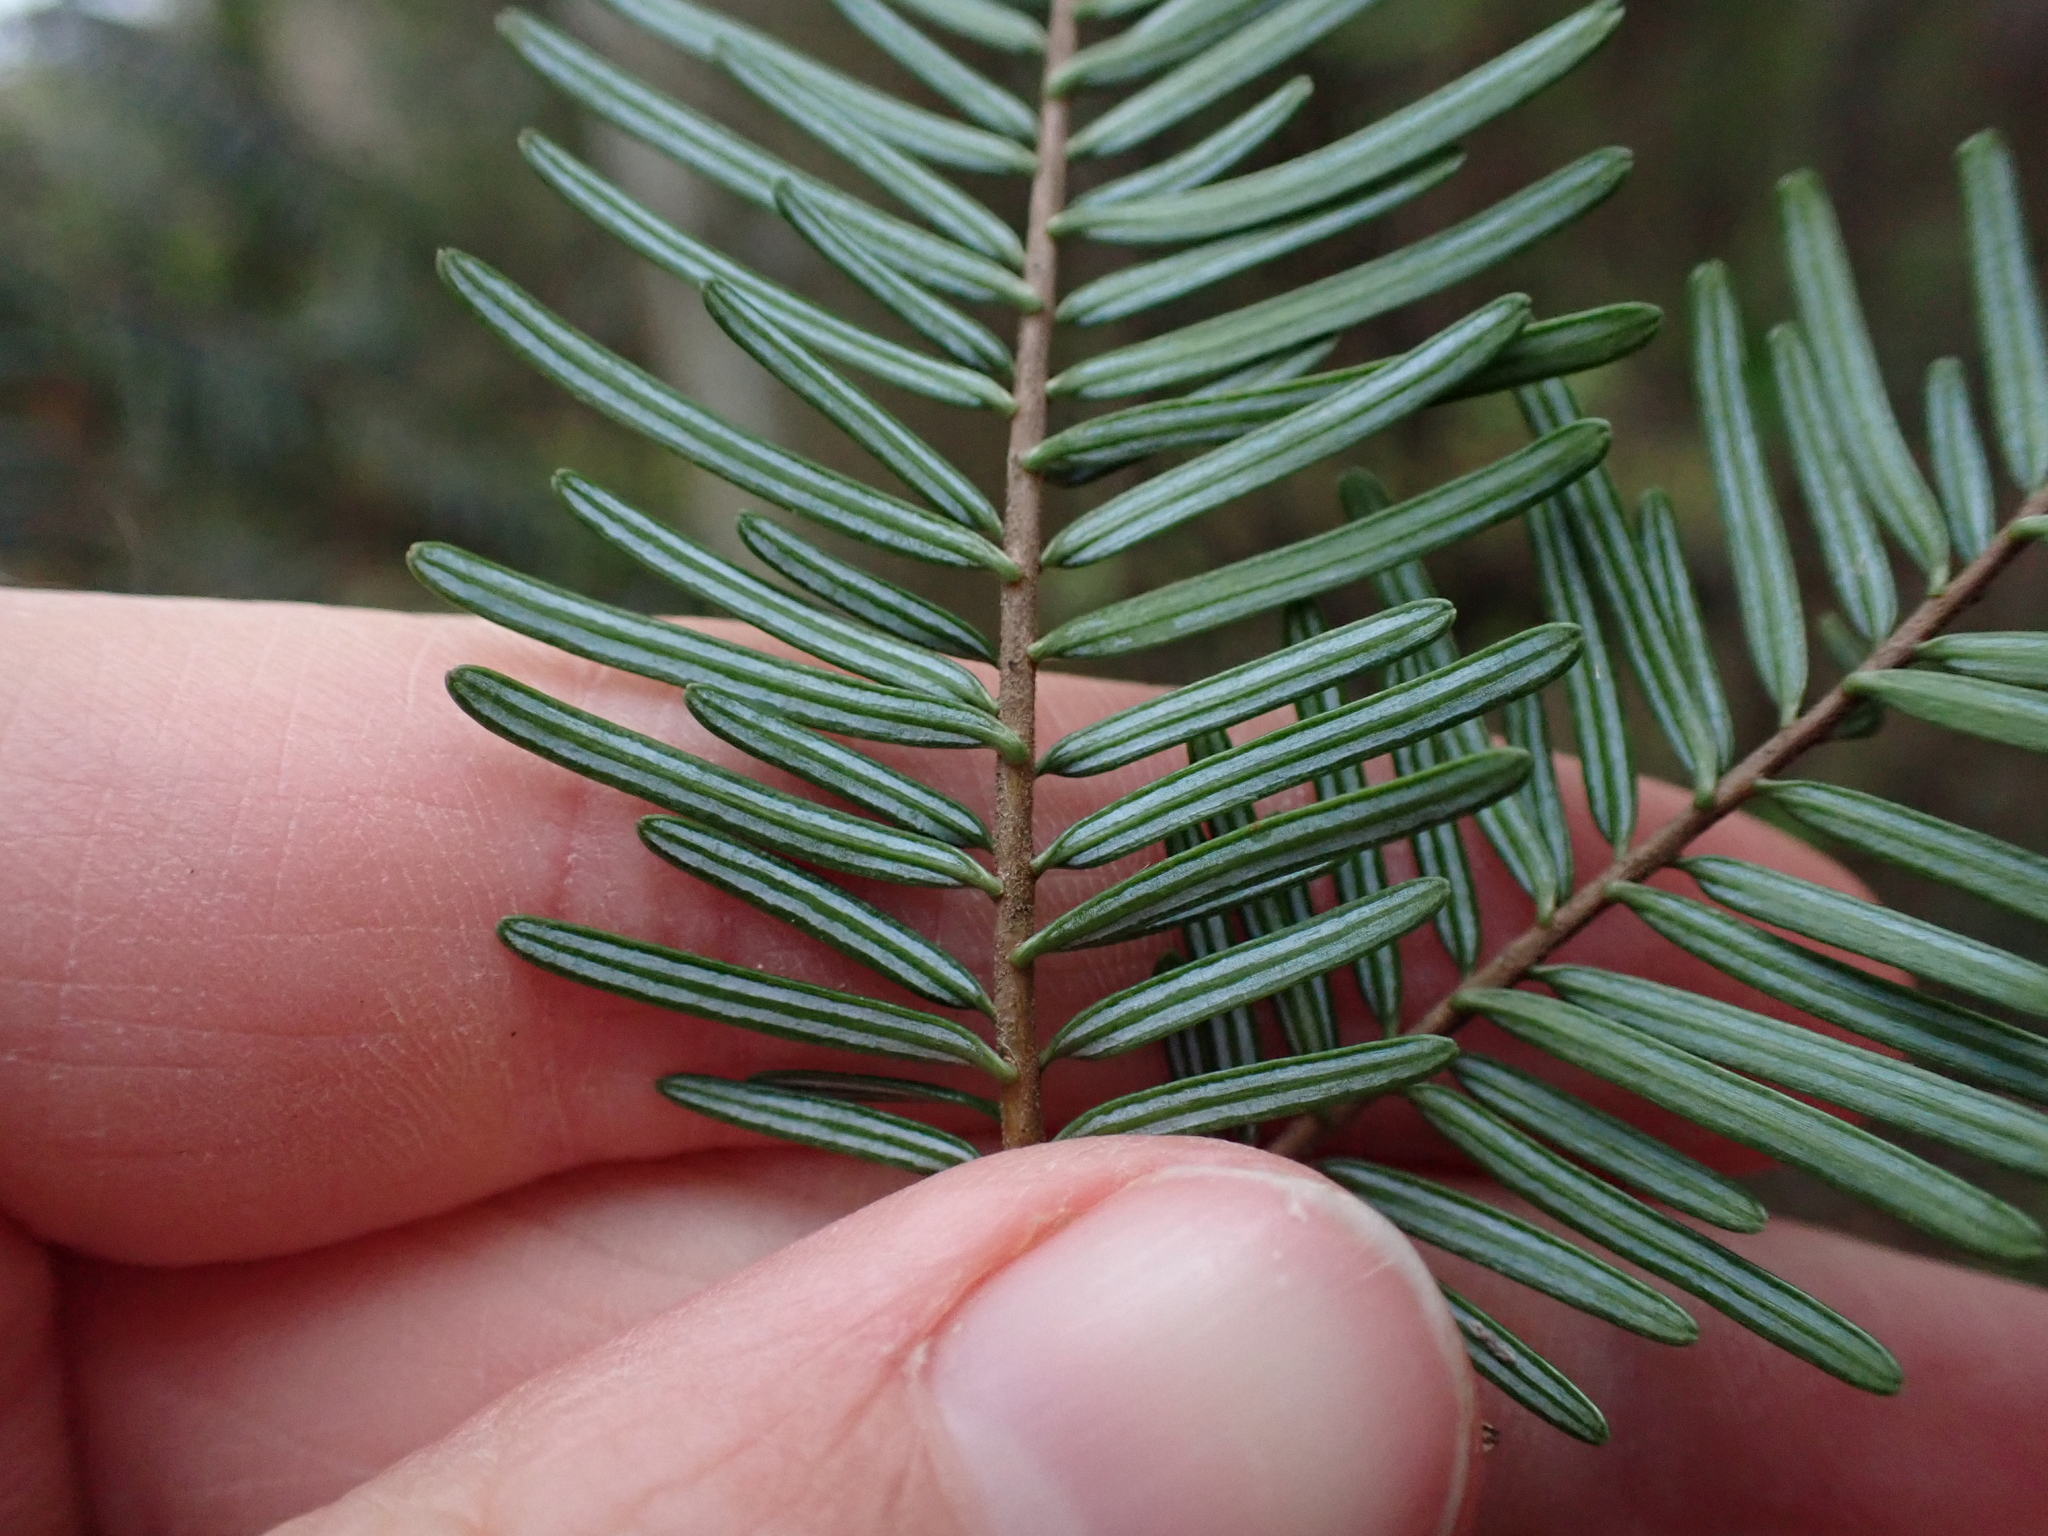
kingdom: Plantae
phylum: Tracheophyta
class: Pinopsida
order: Pinales
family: Pinaceae
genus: Abies
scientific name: Abies grandis
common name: Giant fir
